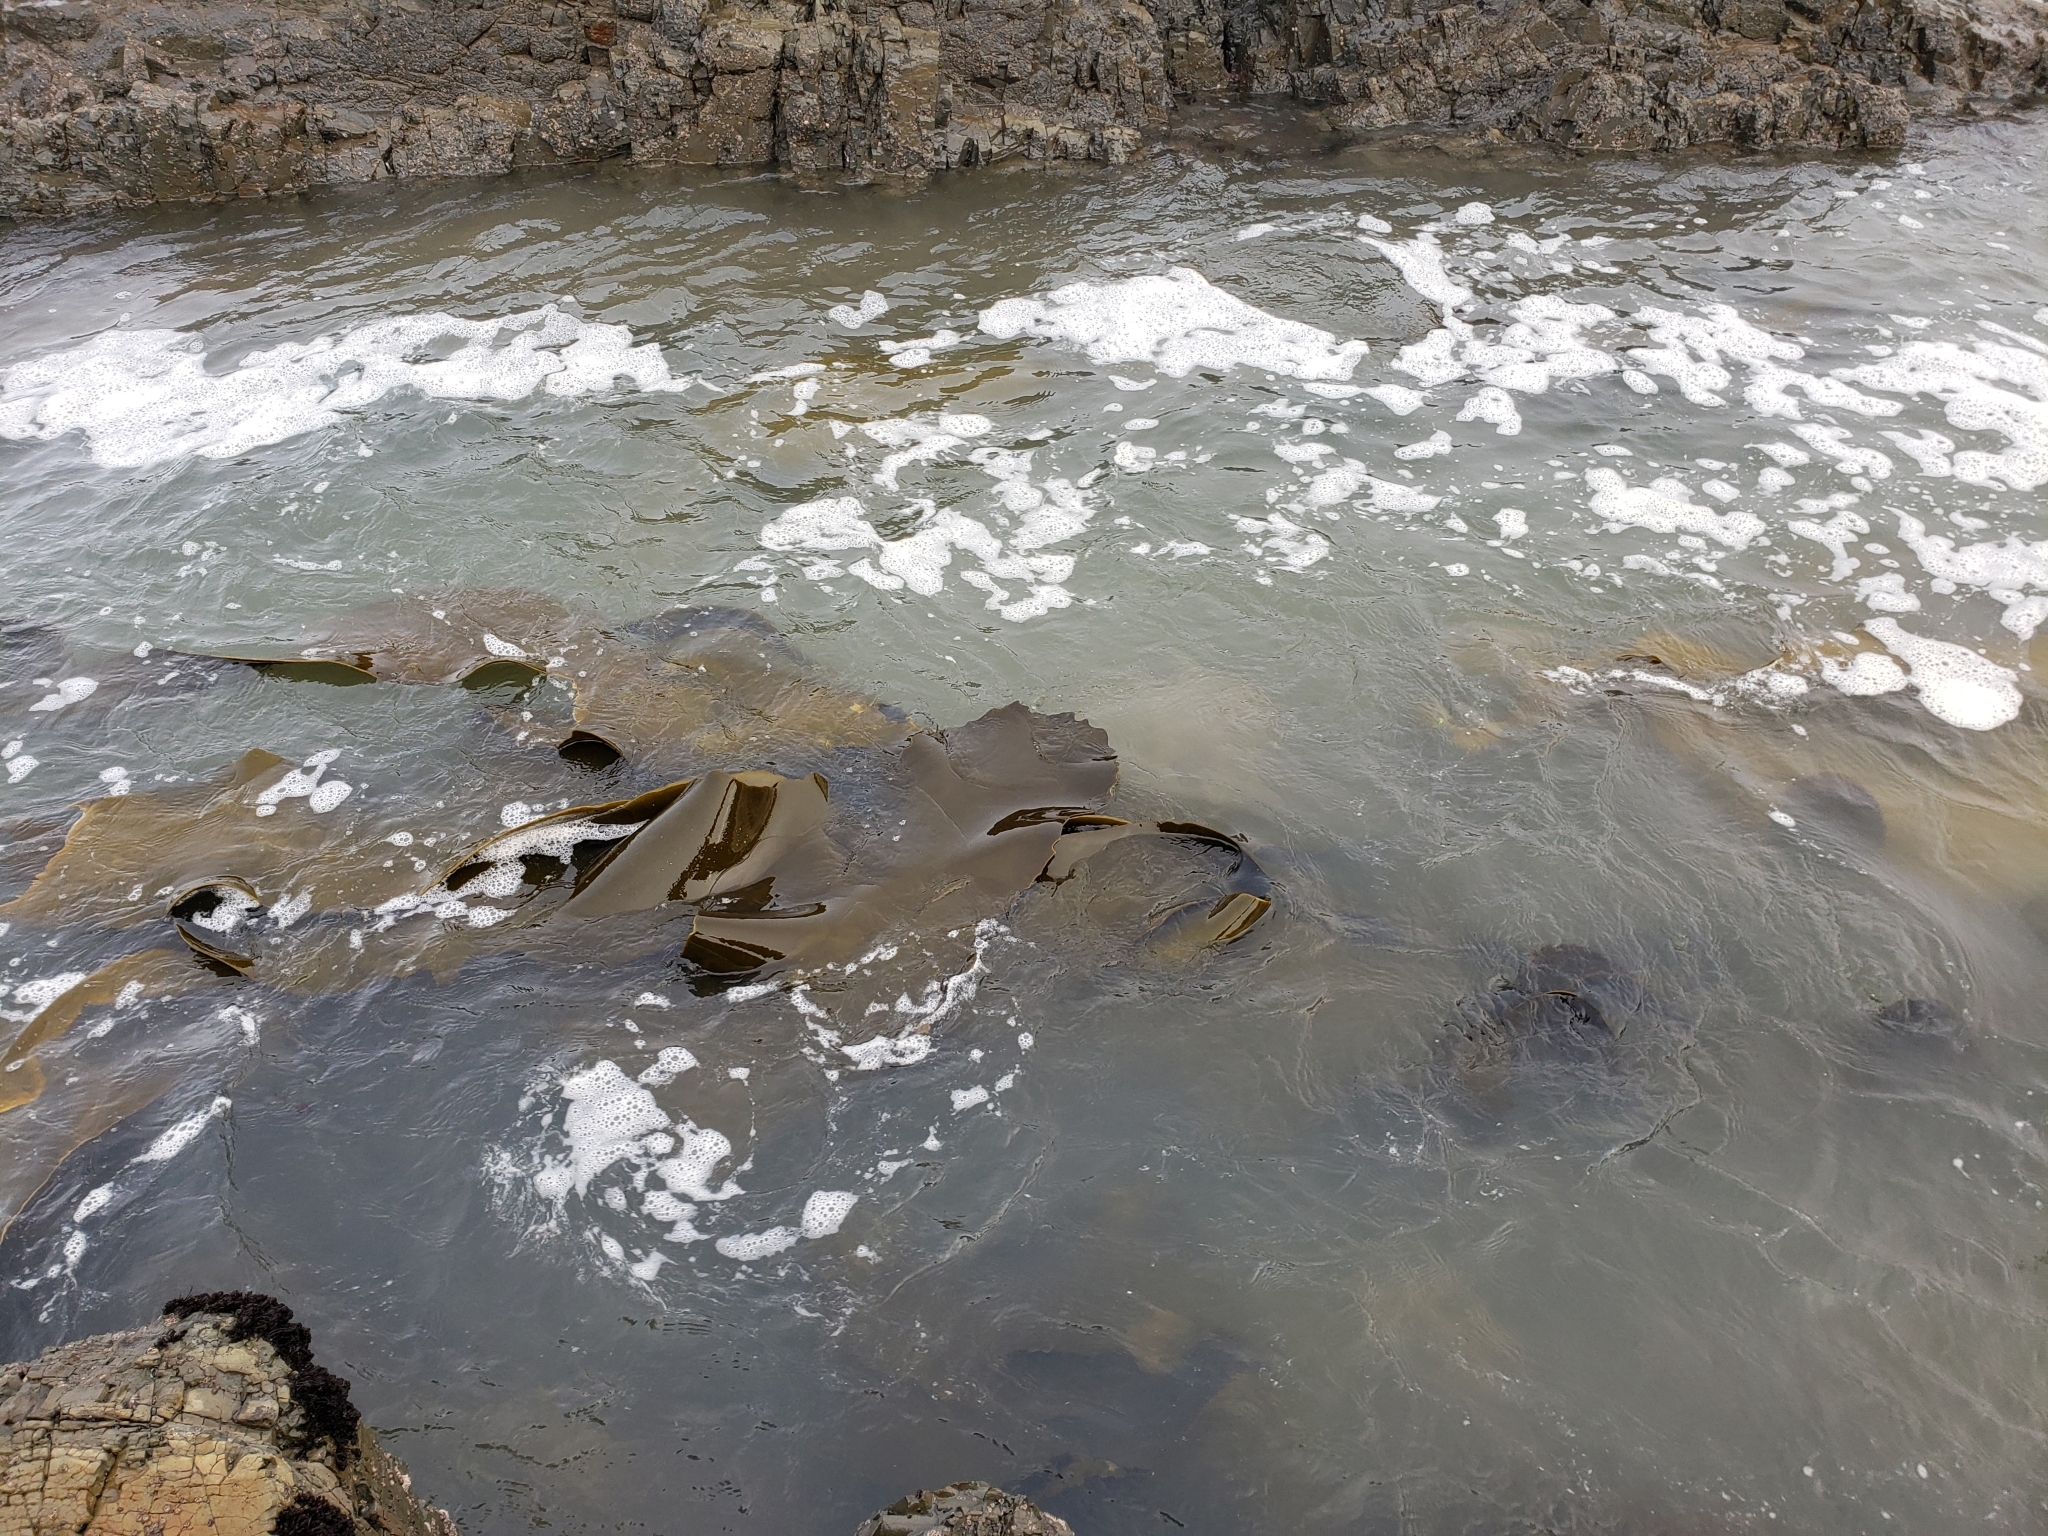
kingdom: Chromista
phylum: Ochrophyta
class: Phaeophyceae
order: Fucales
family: Durvillaeaceae
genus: Durvillaea
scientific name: Durvillaea antarctica
